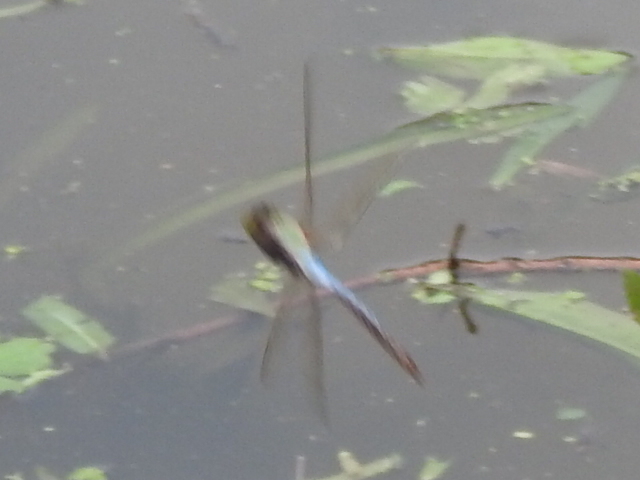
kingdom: Animalia
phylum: Arthropoda
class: Insecta
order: Odonata
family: Aeshnidae
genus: Anax
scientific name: Anax junius
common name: Common green darner
